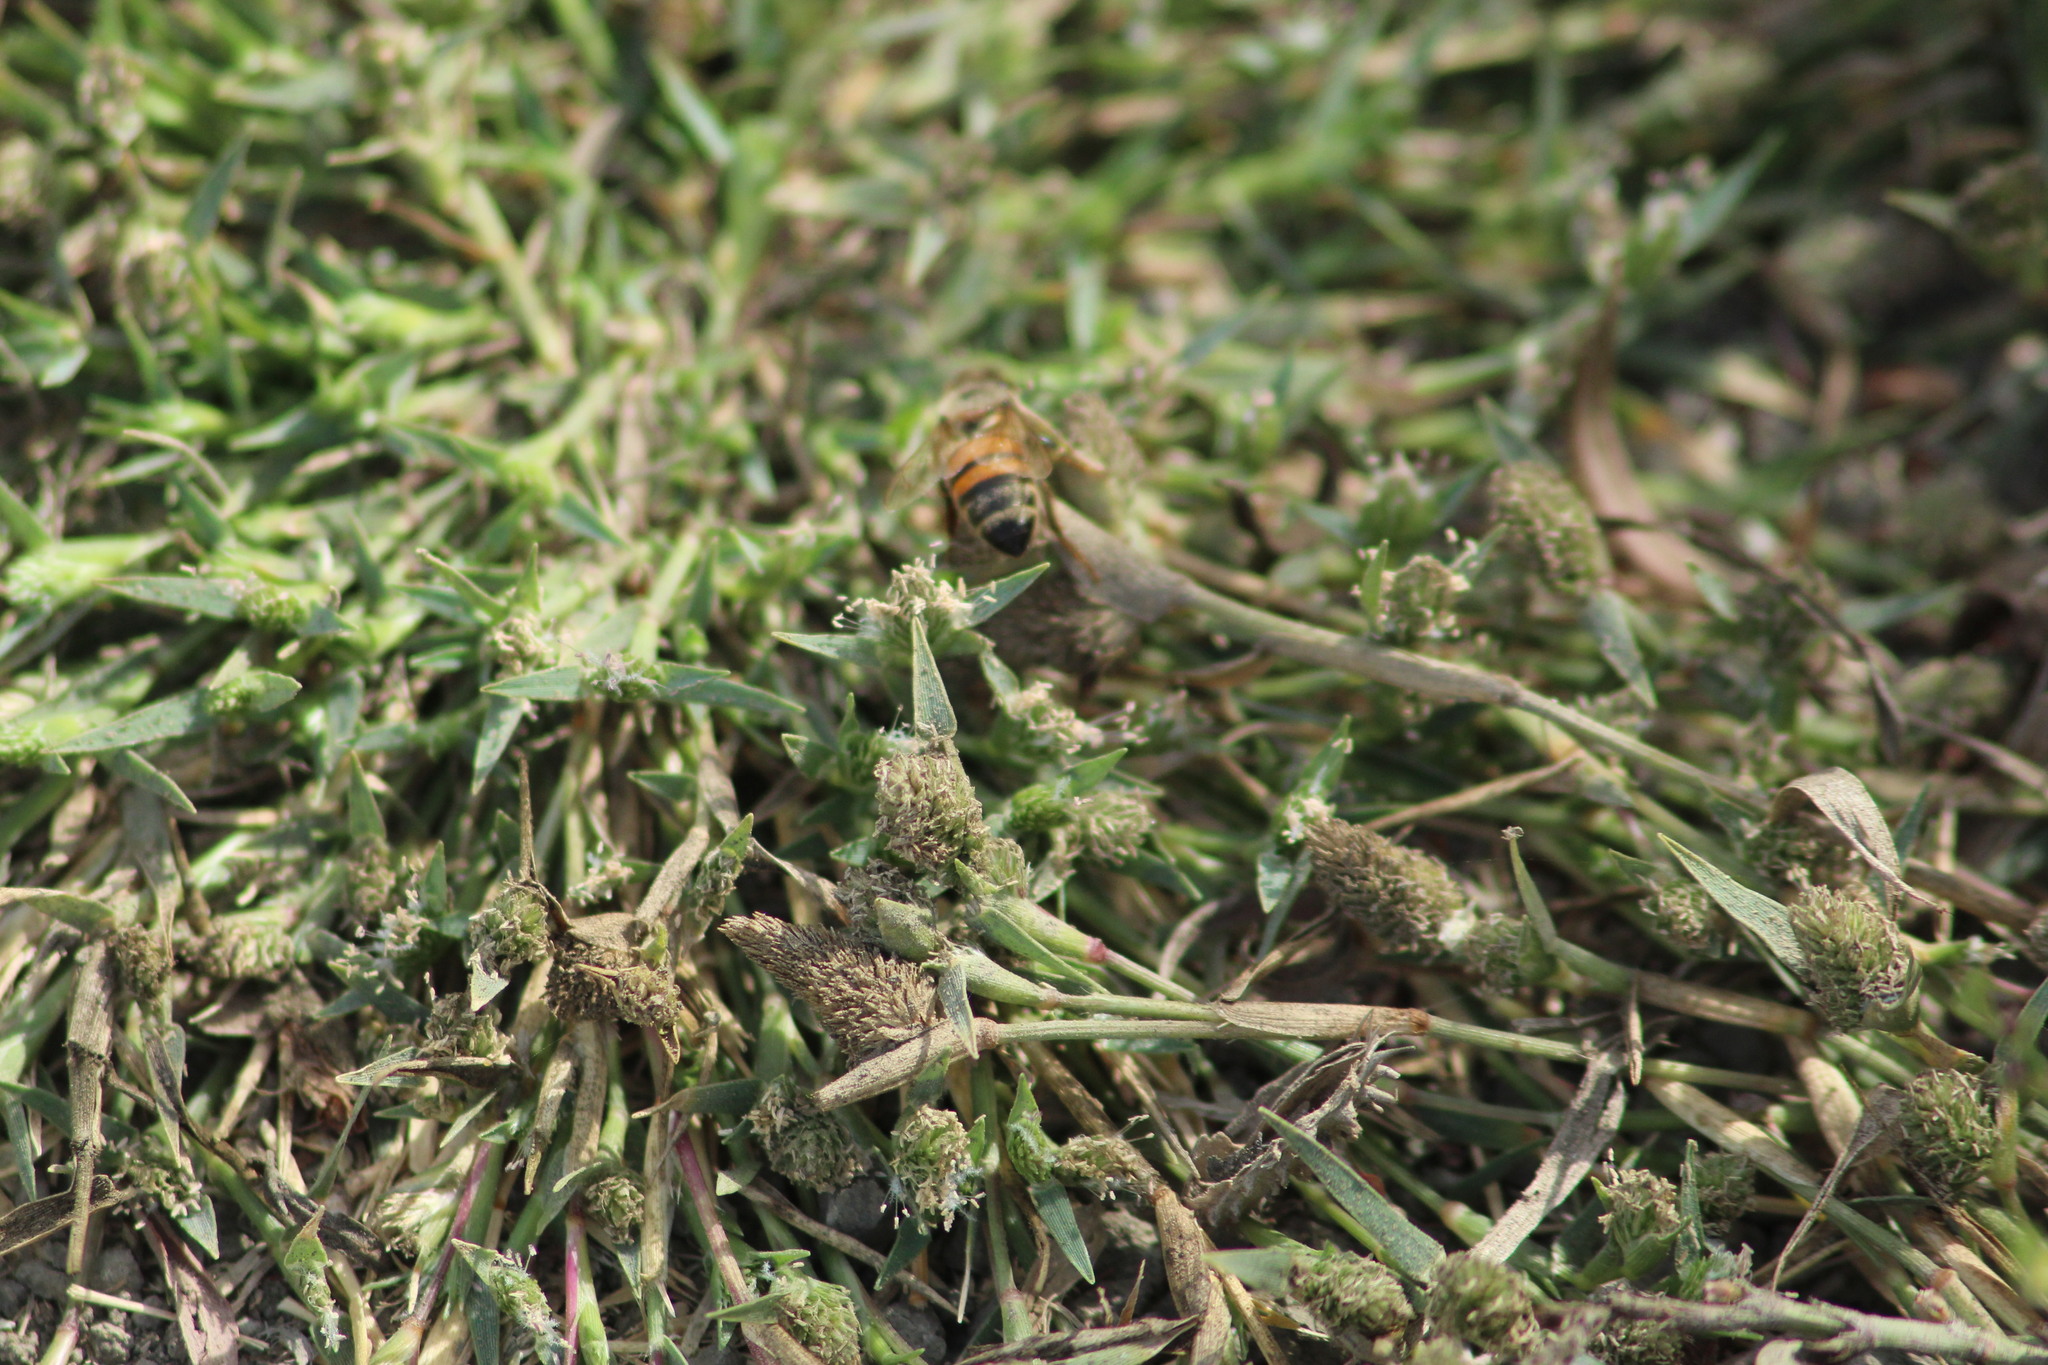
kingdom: Animalia
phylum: Arthropoda
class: Insecta
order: Hymenoptera
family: Apidae
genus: Apis
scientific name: Apis mellifera
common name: Honey bee
